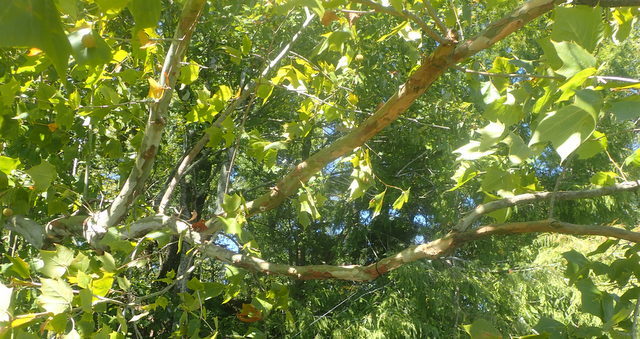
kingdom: Plantae
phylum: Tracheophyta
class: Magnoliopsida
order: Proteales
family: Platanaceae
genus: Platanus
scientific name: Platanus occidentalis
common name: American sycamore
